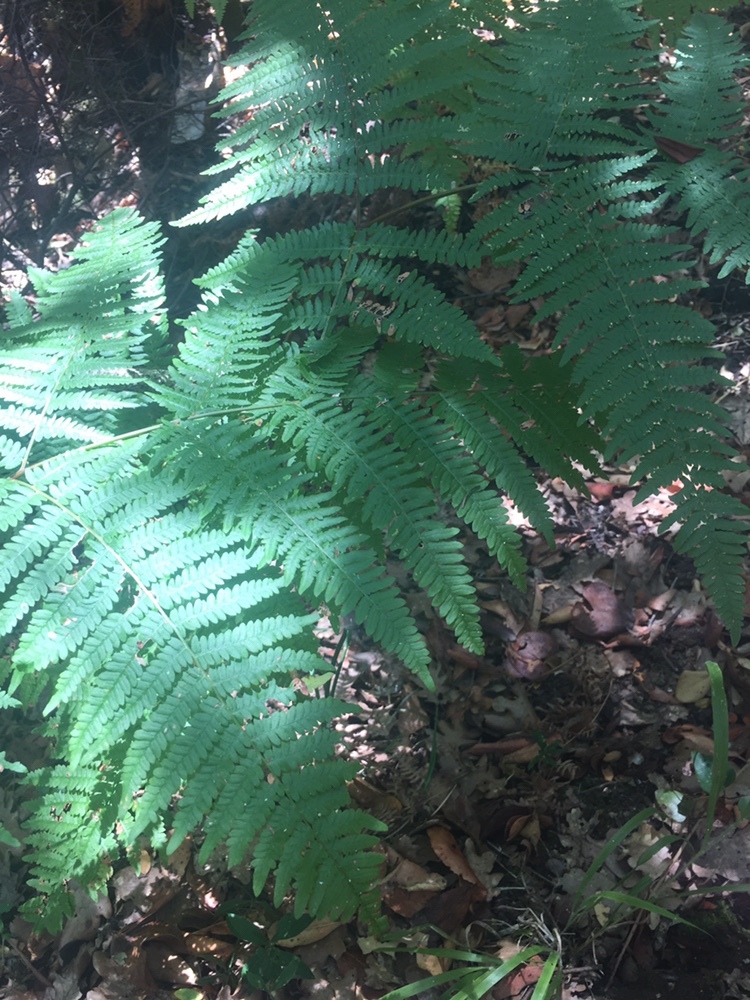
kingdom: Plantae
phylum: Tracheophyta
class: Polypodiopsida
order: Polypodiales
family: Dennstaedtiaceae
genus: Pteridium
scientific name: Pteridium aquilinum
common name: Bracken
